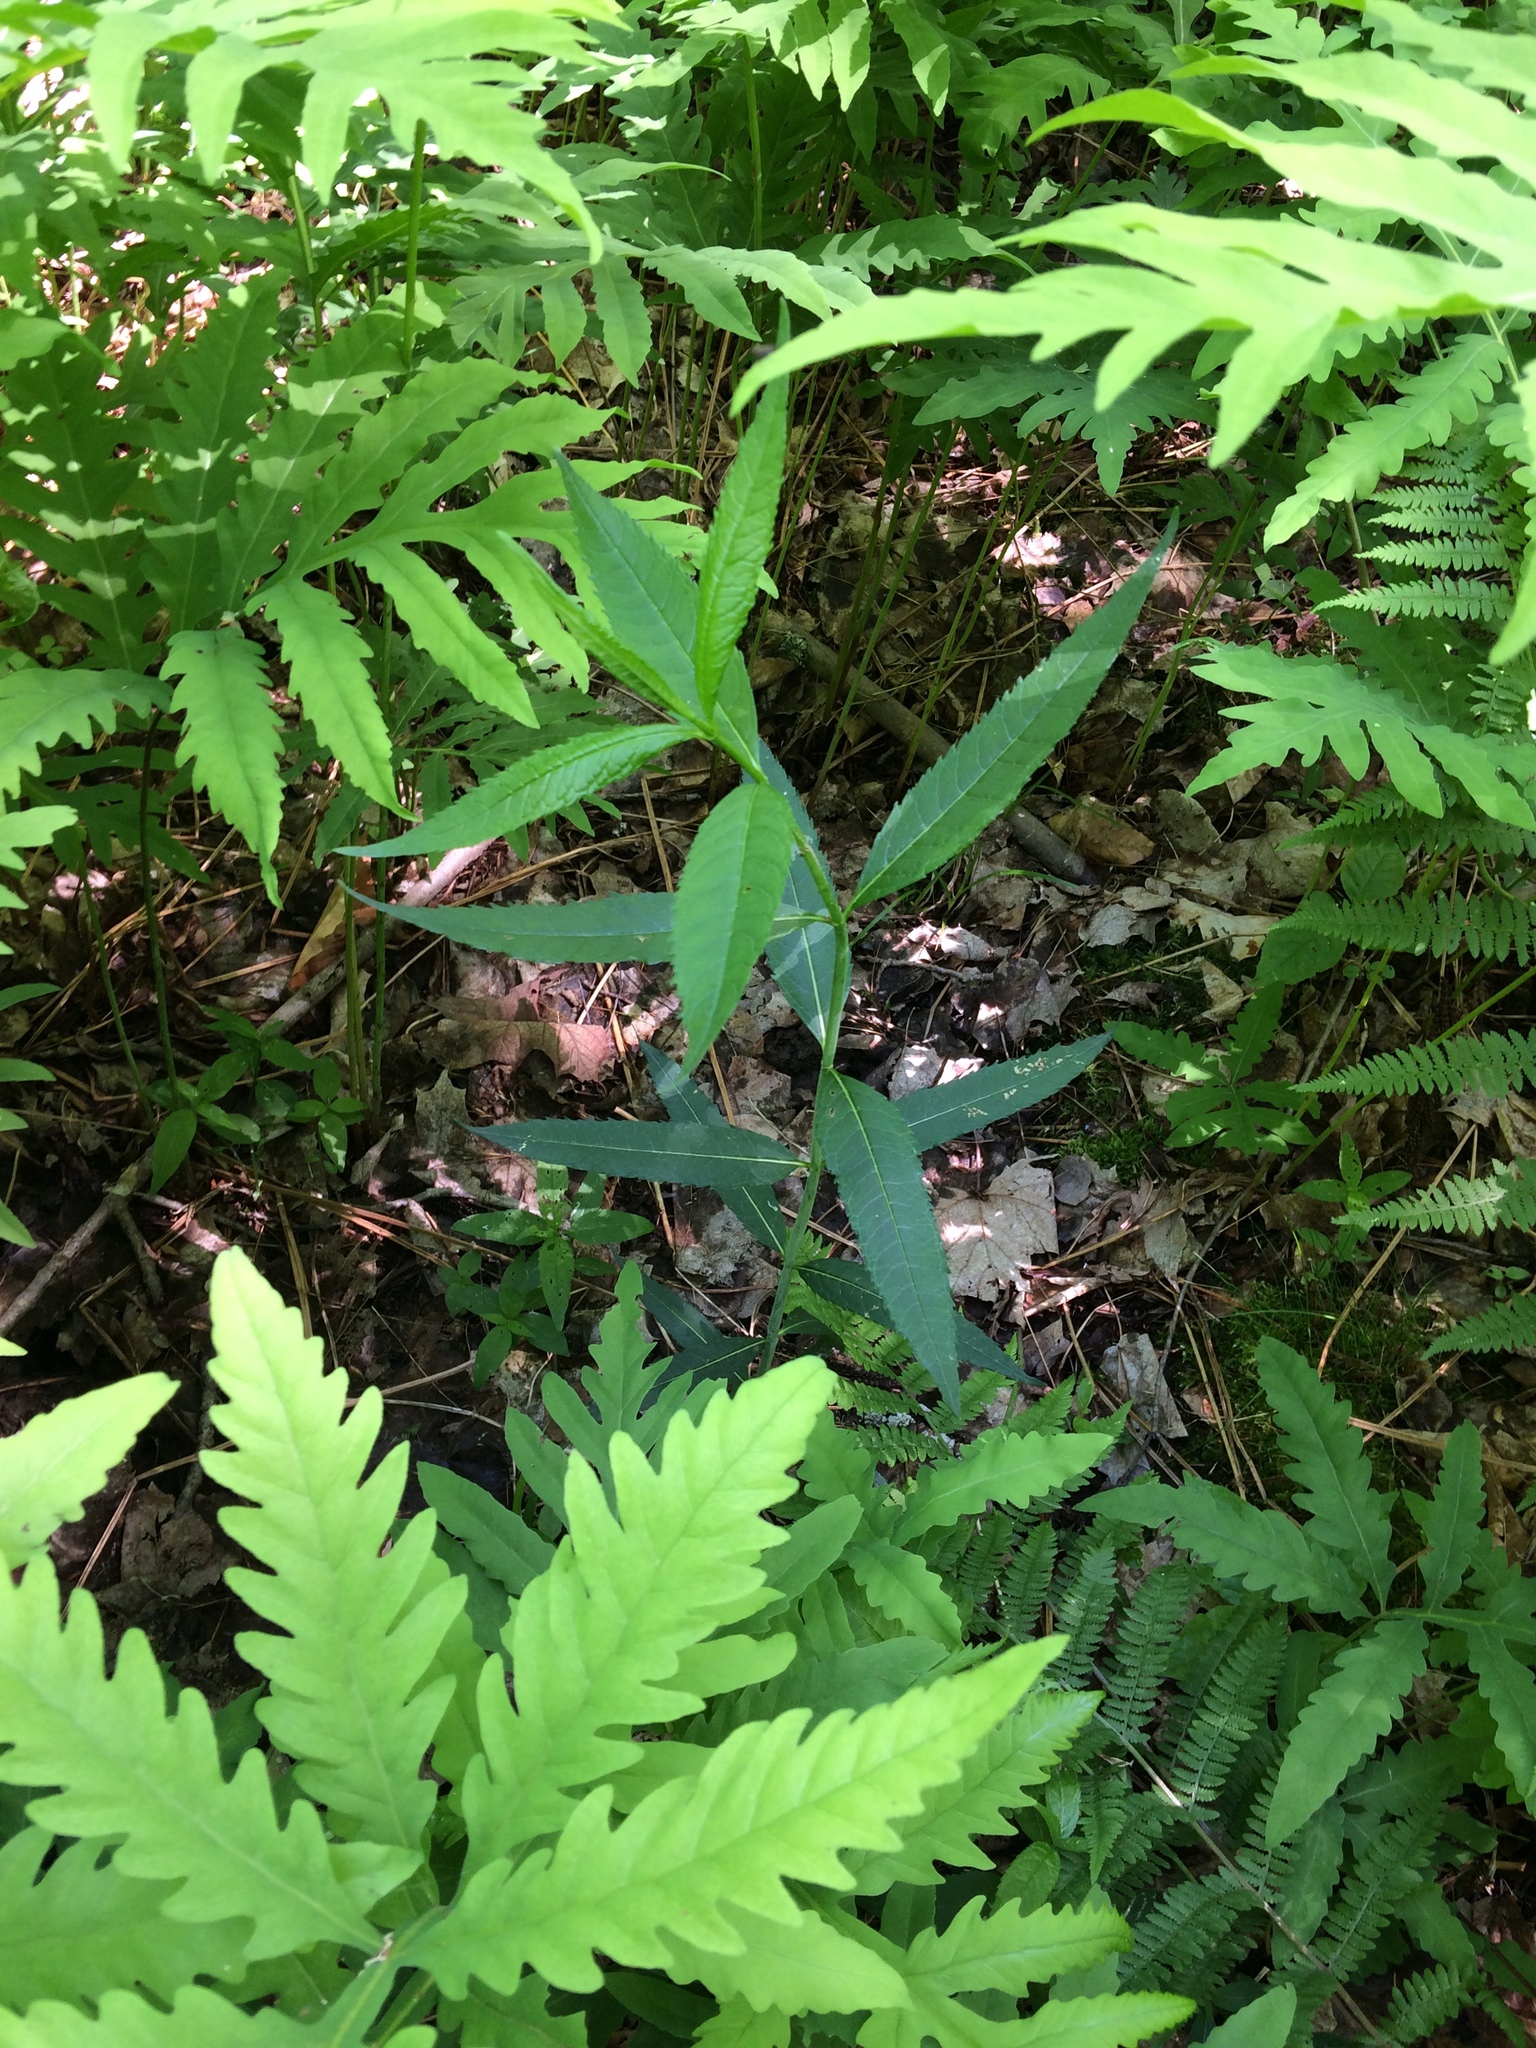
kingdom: Plantae
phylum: Tracheophyta
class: Magnoliopsida
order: Lamiales
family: Plantaginaceae
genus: Chelone
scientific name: Chelone glabra
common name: Snakehead
